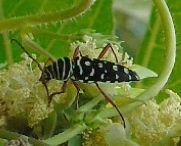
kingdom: Animalia
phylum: Arthropoda
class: Insecta
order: Coleoptera
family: Cerambycidae
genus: Placosternus
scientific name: Placosternus difficilis
